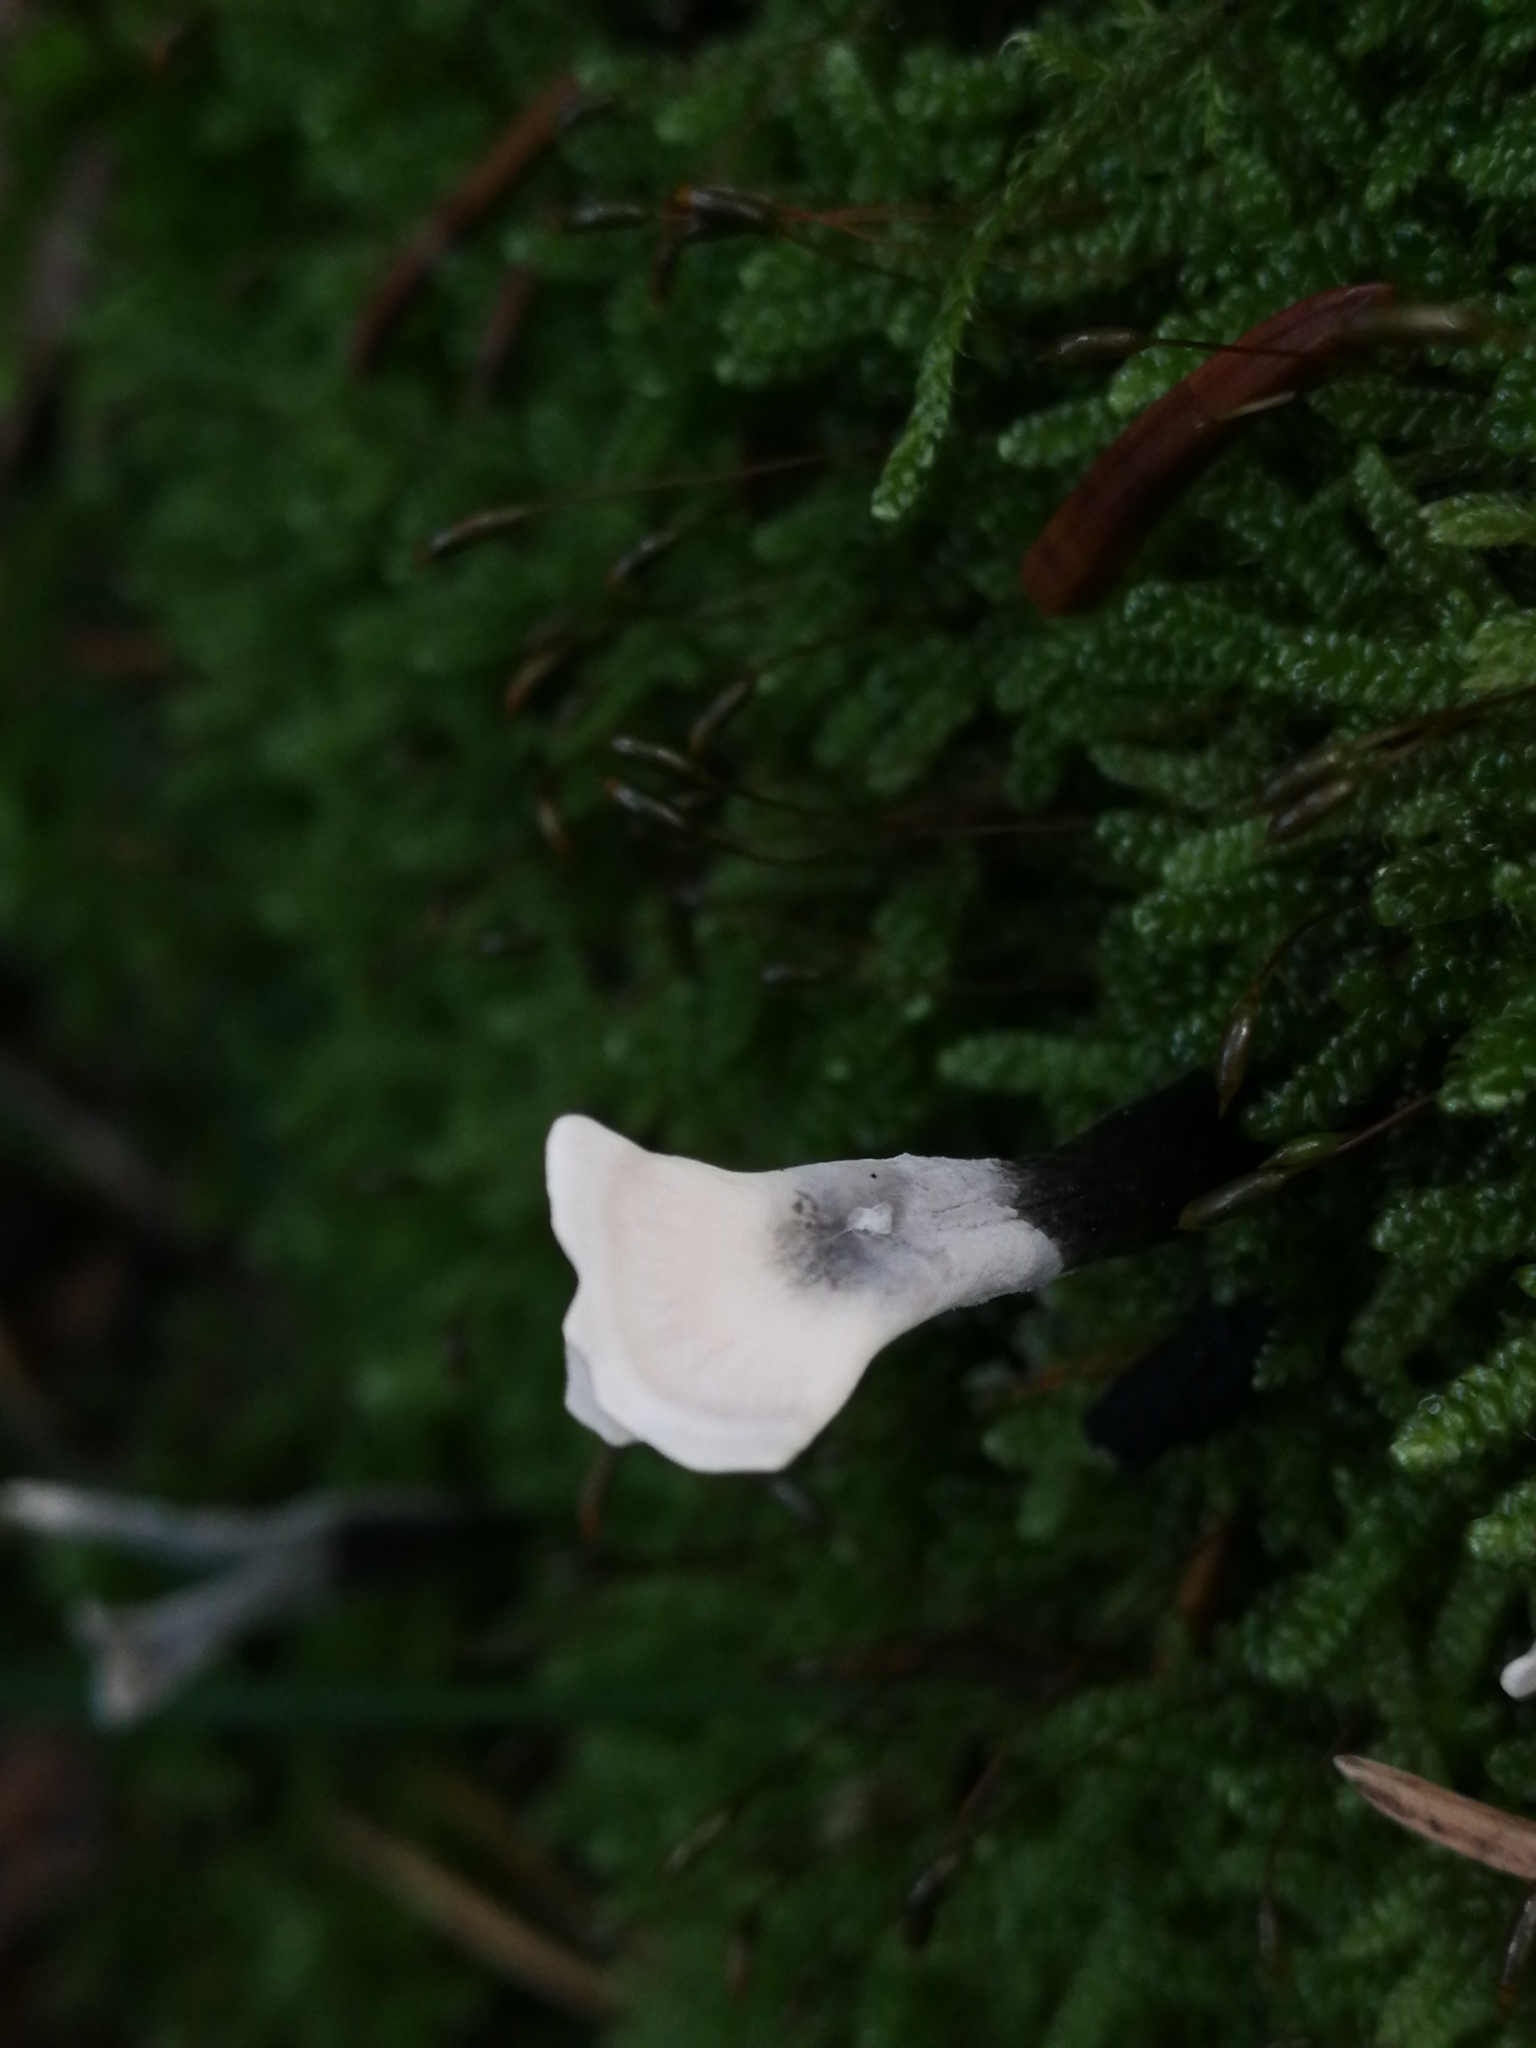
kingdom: Fungi
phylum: Ascomycota
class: Sordariomycetes
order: Xylariales
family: Xylariaceae
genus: Xylaria
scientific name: Xylaria hypoxylon
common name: Candle-snuff fungus
